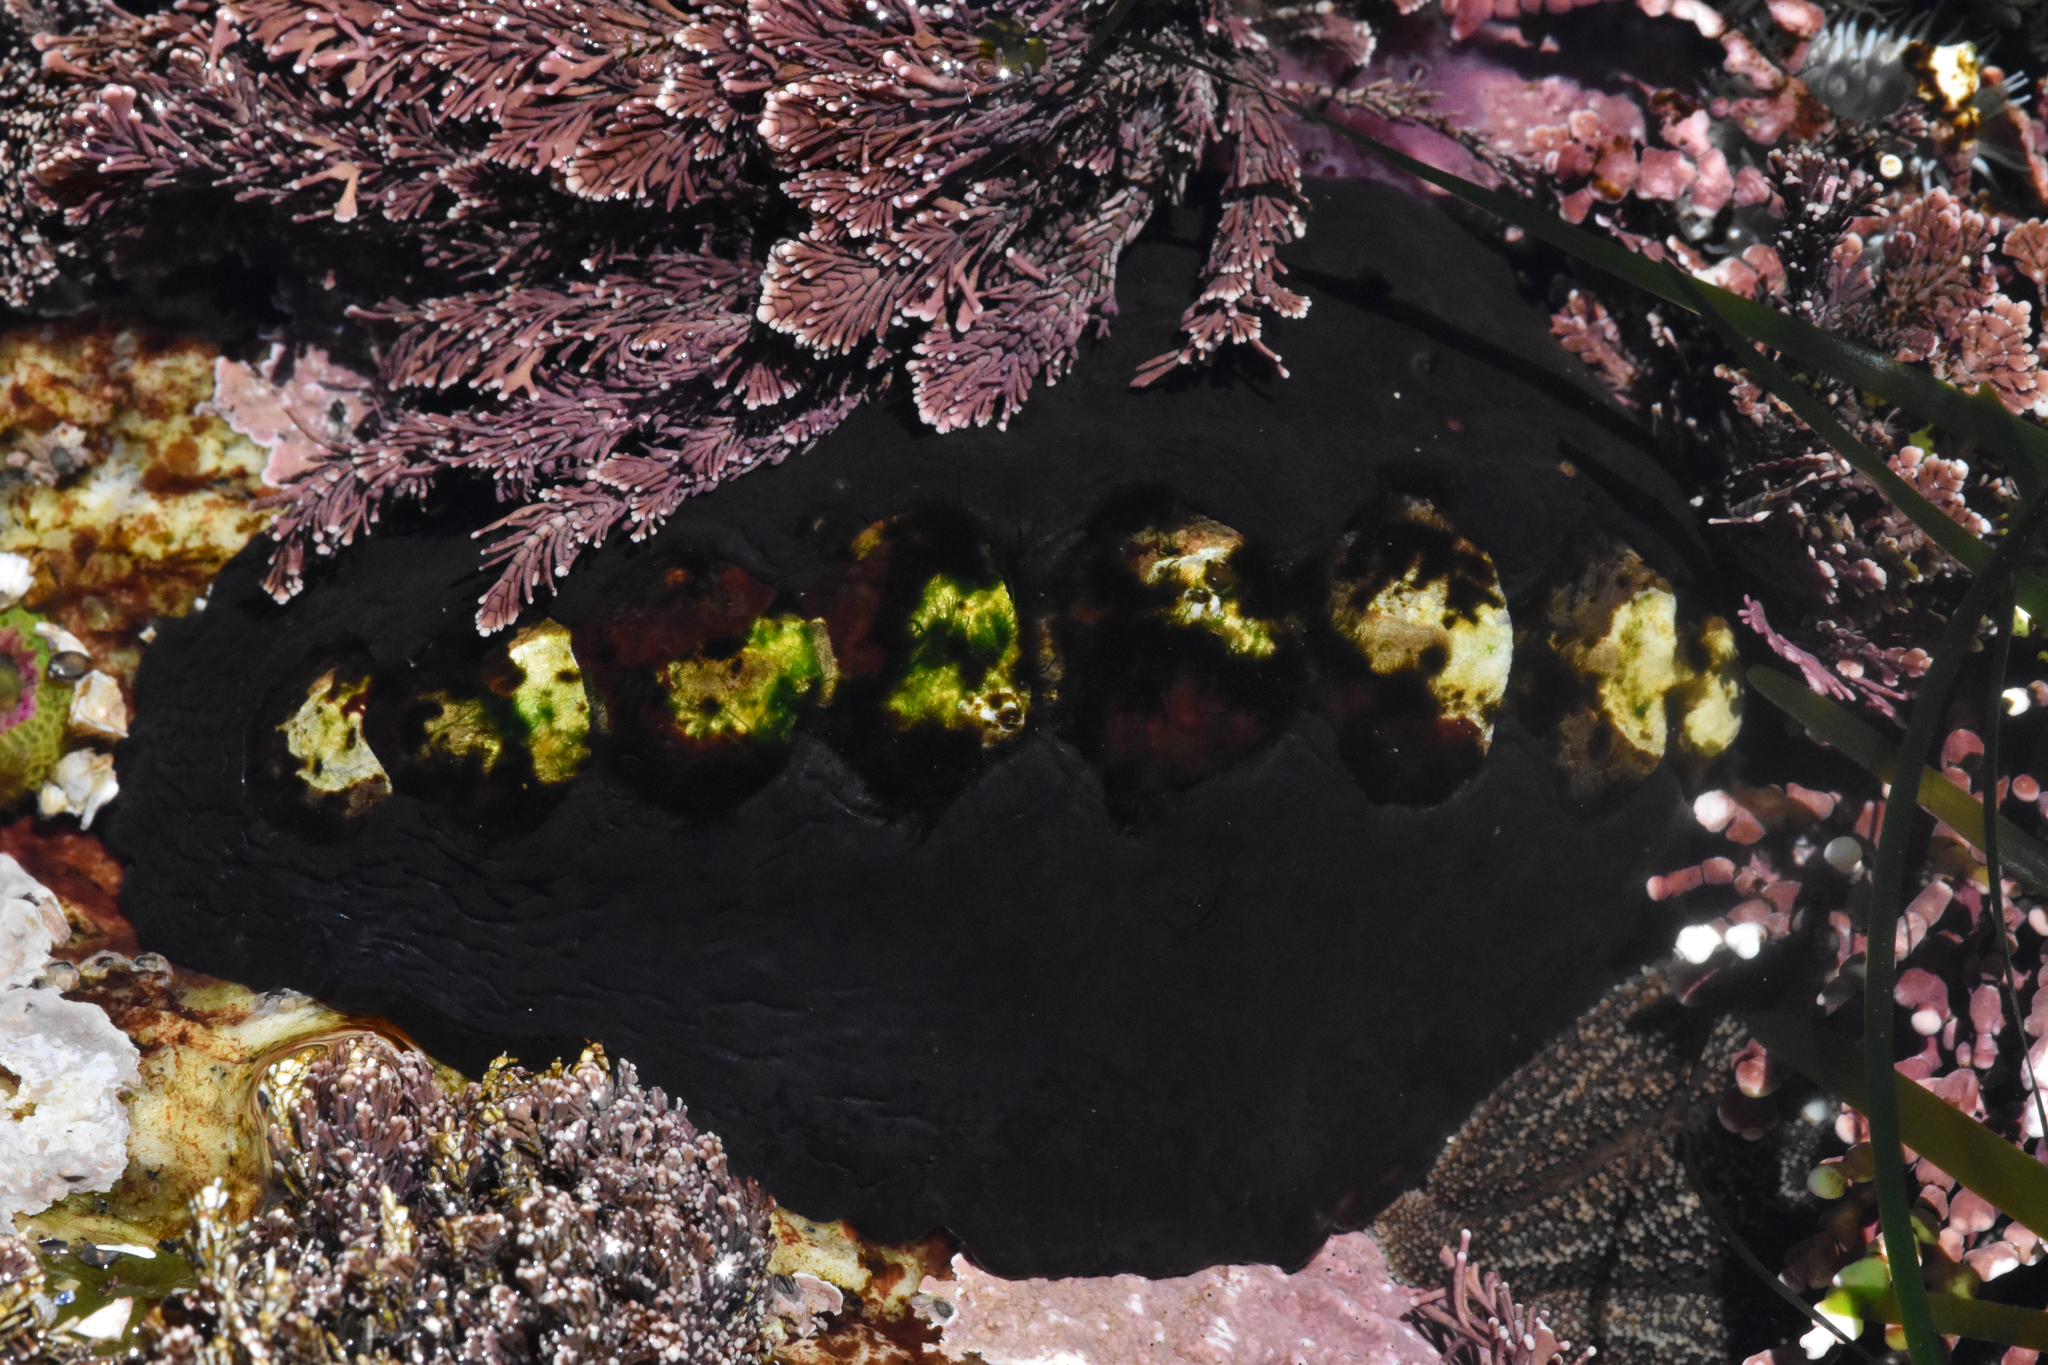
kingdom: Animalia
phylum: Mollusca
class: Polyplacophora
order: Chitonida
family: Mopaliidae
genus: Katharina
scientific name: Katharina tunicata
